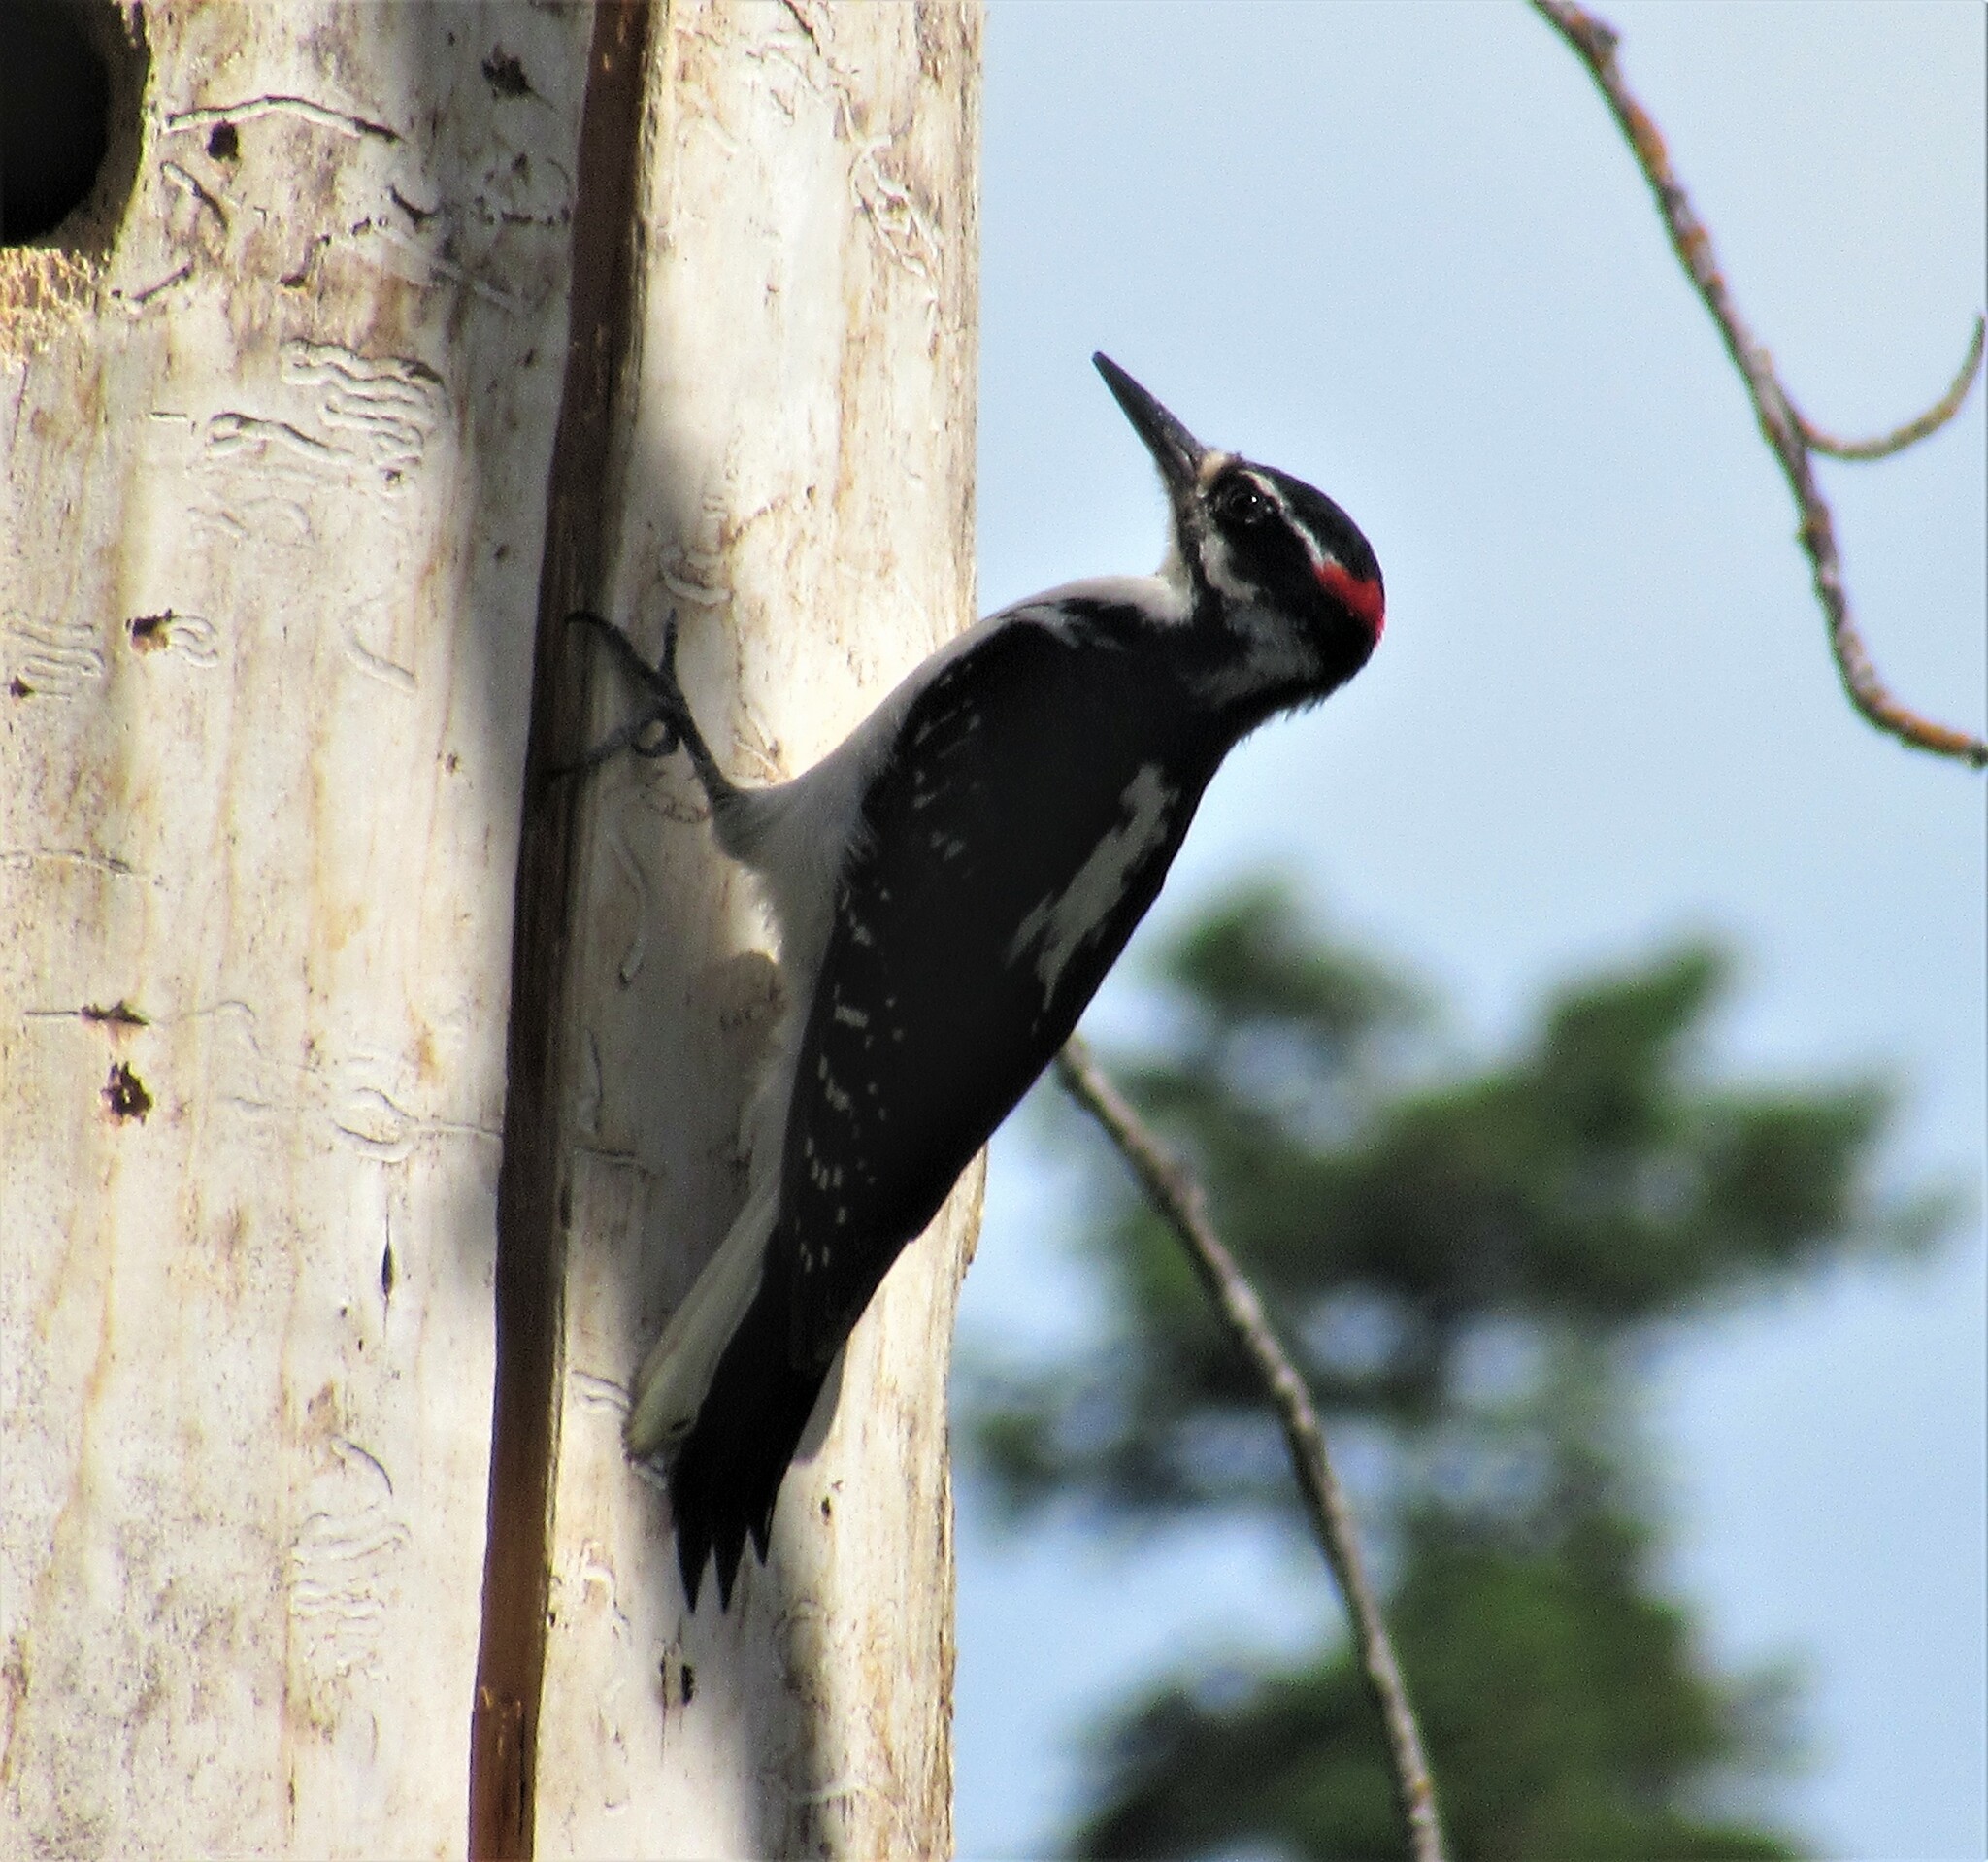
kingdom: Animalia
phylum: Chordata
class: Aves
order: Piciformes
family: Picidae
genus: Leuconotopicus
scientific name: Leuconotopicus villosus
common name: Hairy woodpecker
